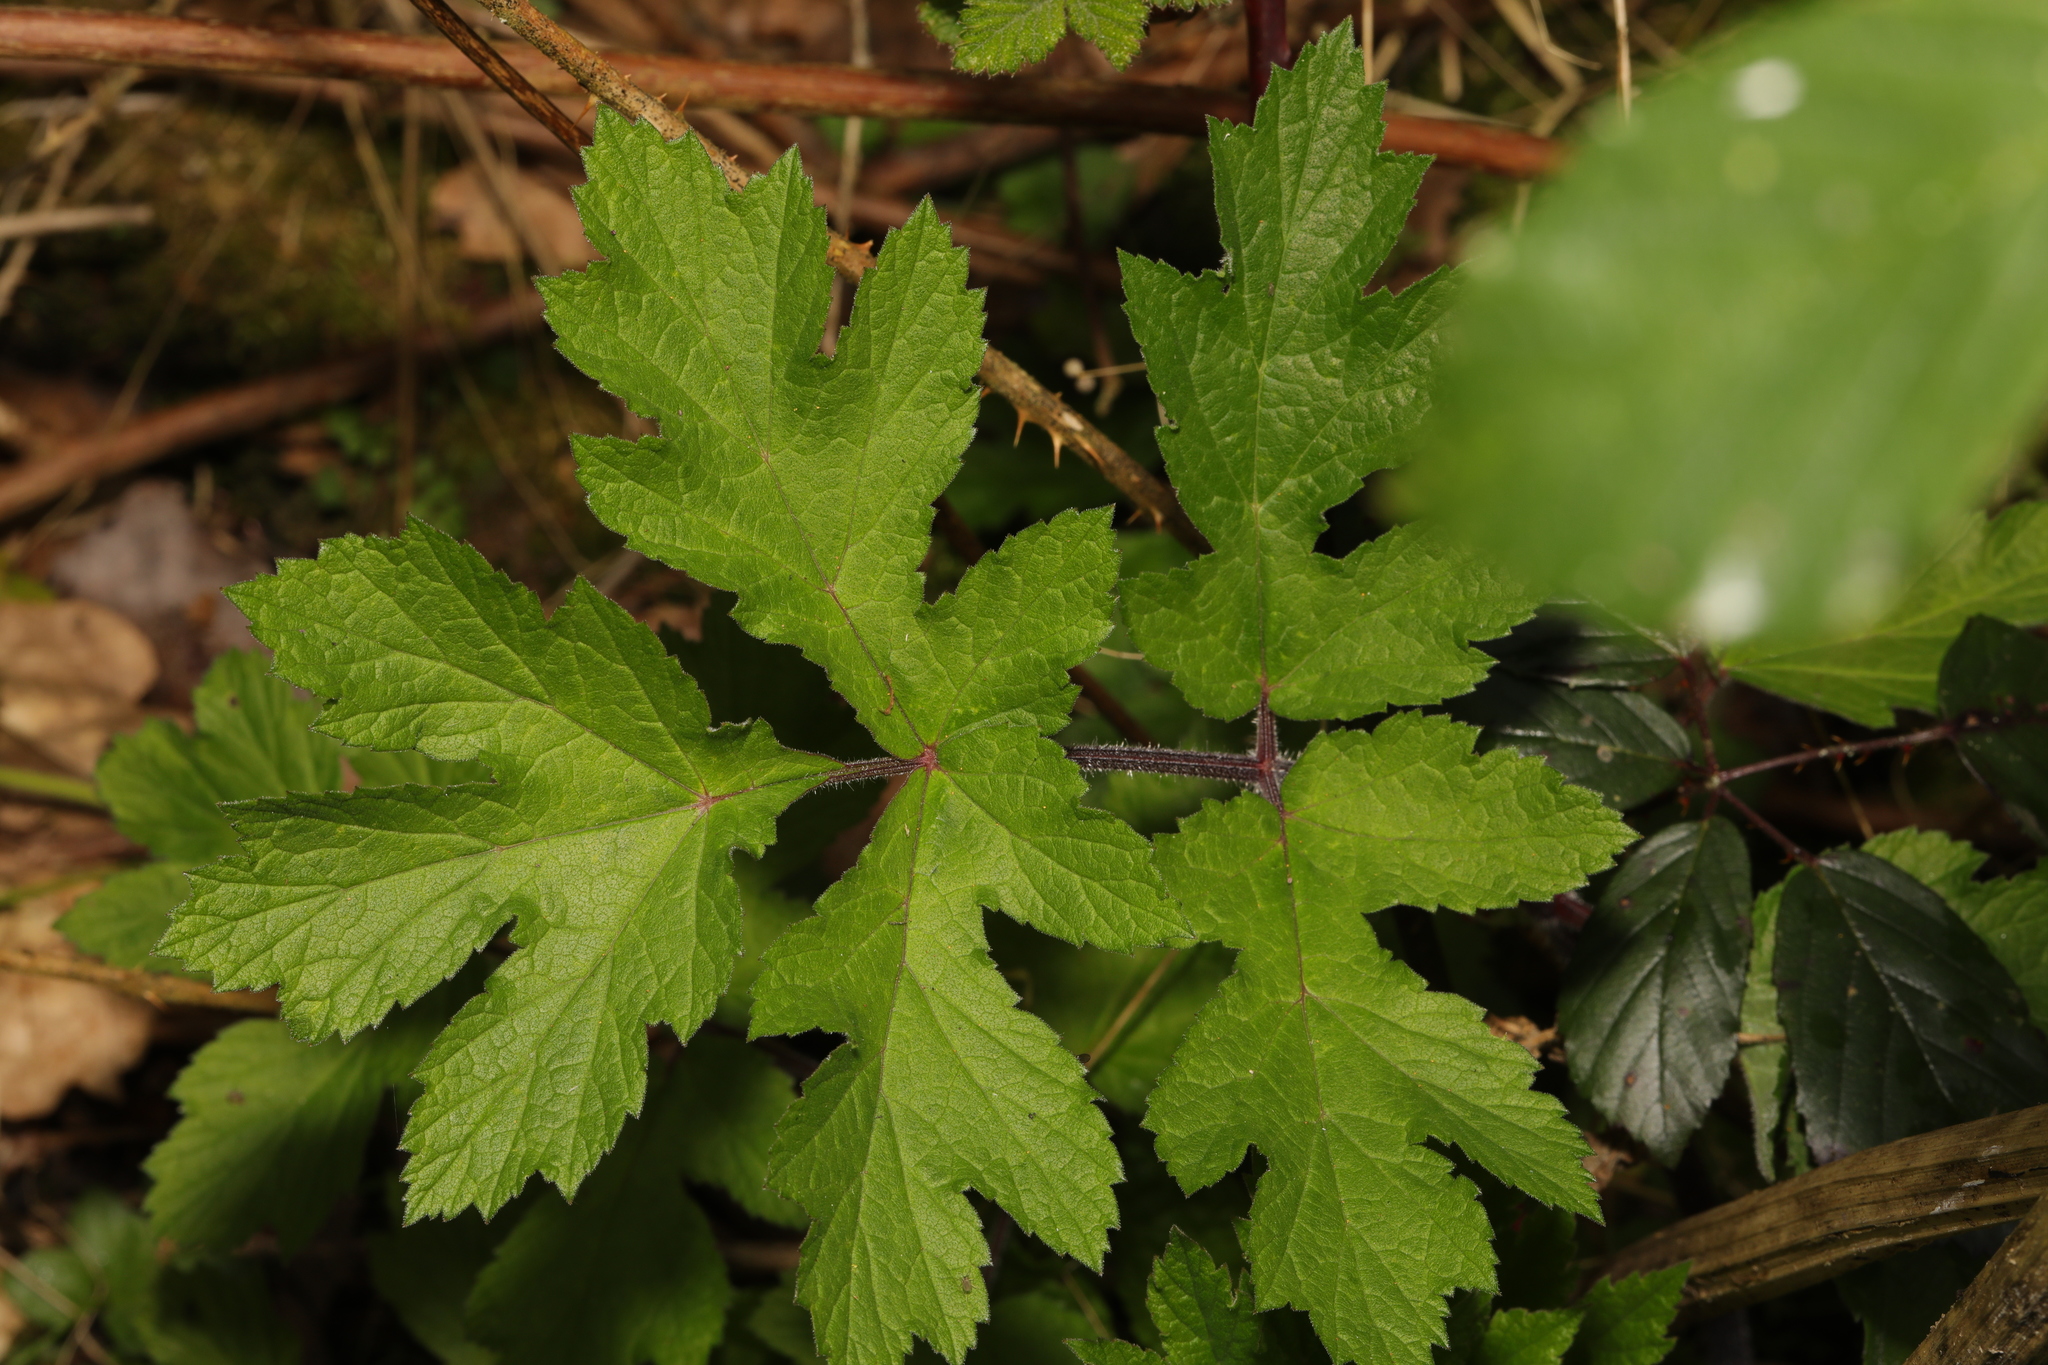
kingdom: Plantae
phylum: Tracheophyta
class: Magnoliopsida
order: Apiales
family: Apiaceae
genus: Heracleum
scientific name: Heracleum sphondylium
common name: Hogweed
